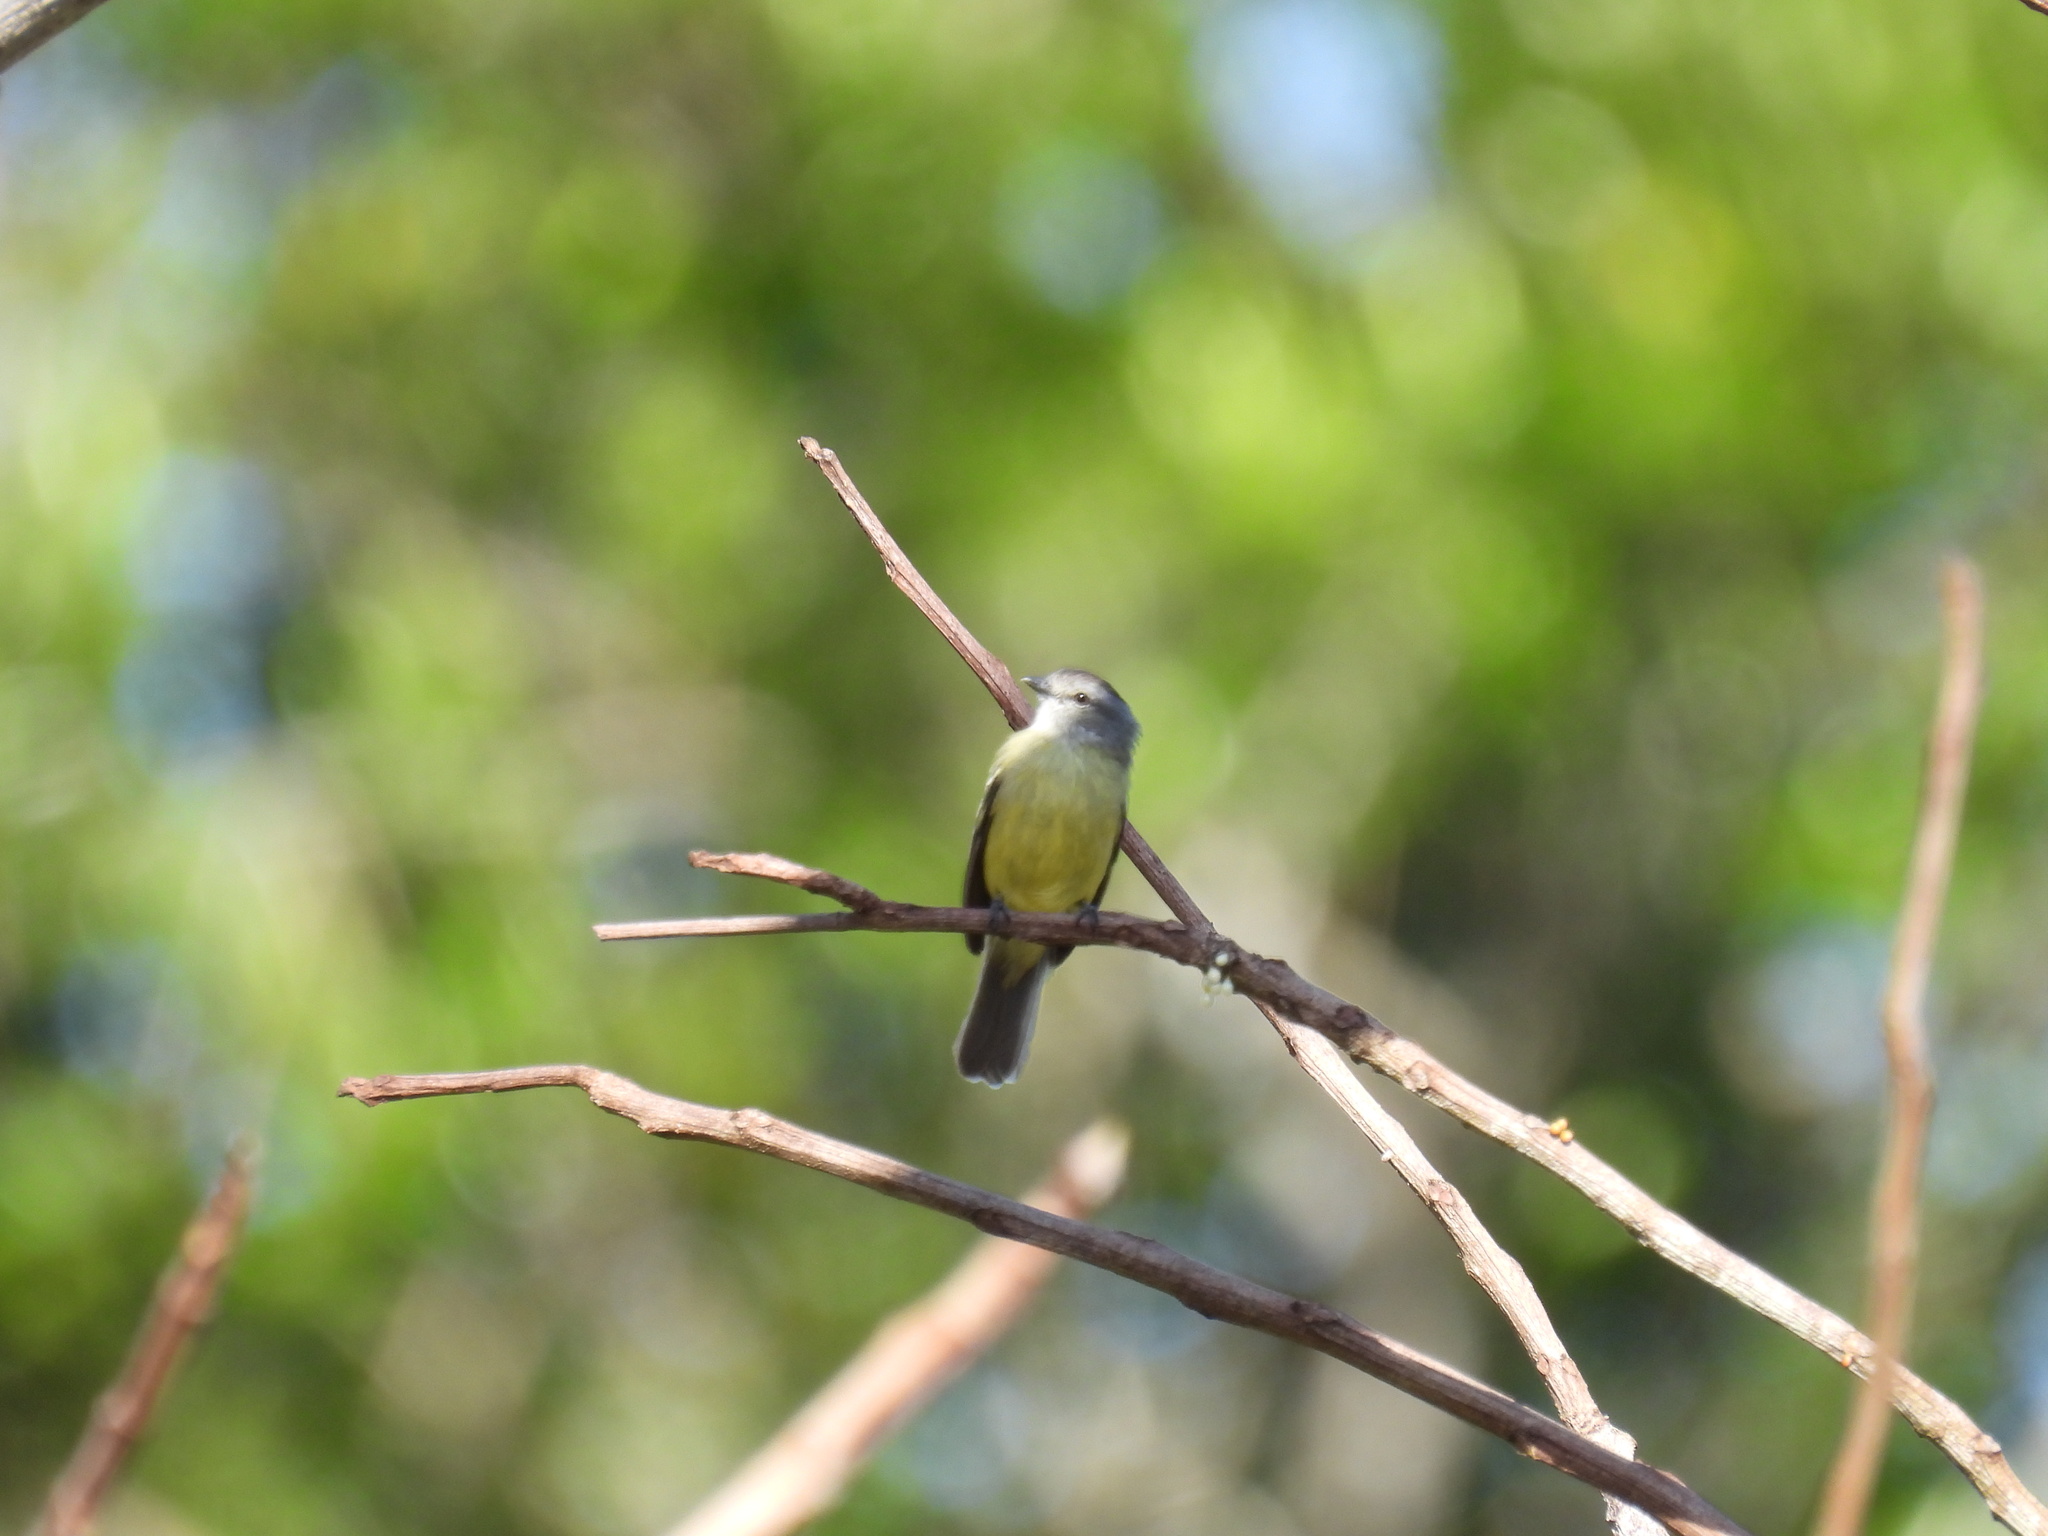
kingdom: Animalia
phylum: Chordata
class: Aves
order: Passeriformes
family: Tyrannidae
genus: Tyrannulus
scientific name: Tyrannulus elatus
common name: Yellow-crowned tyrannulet
